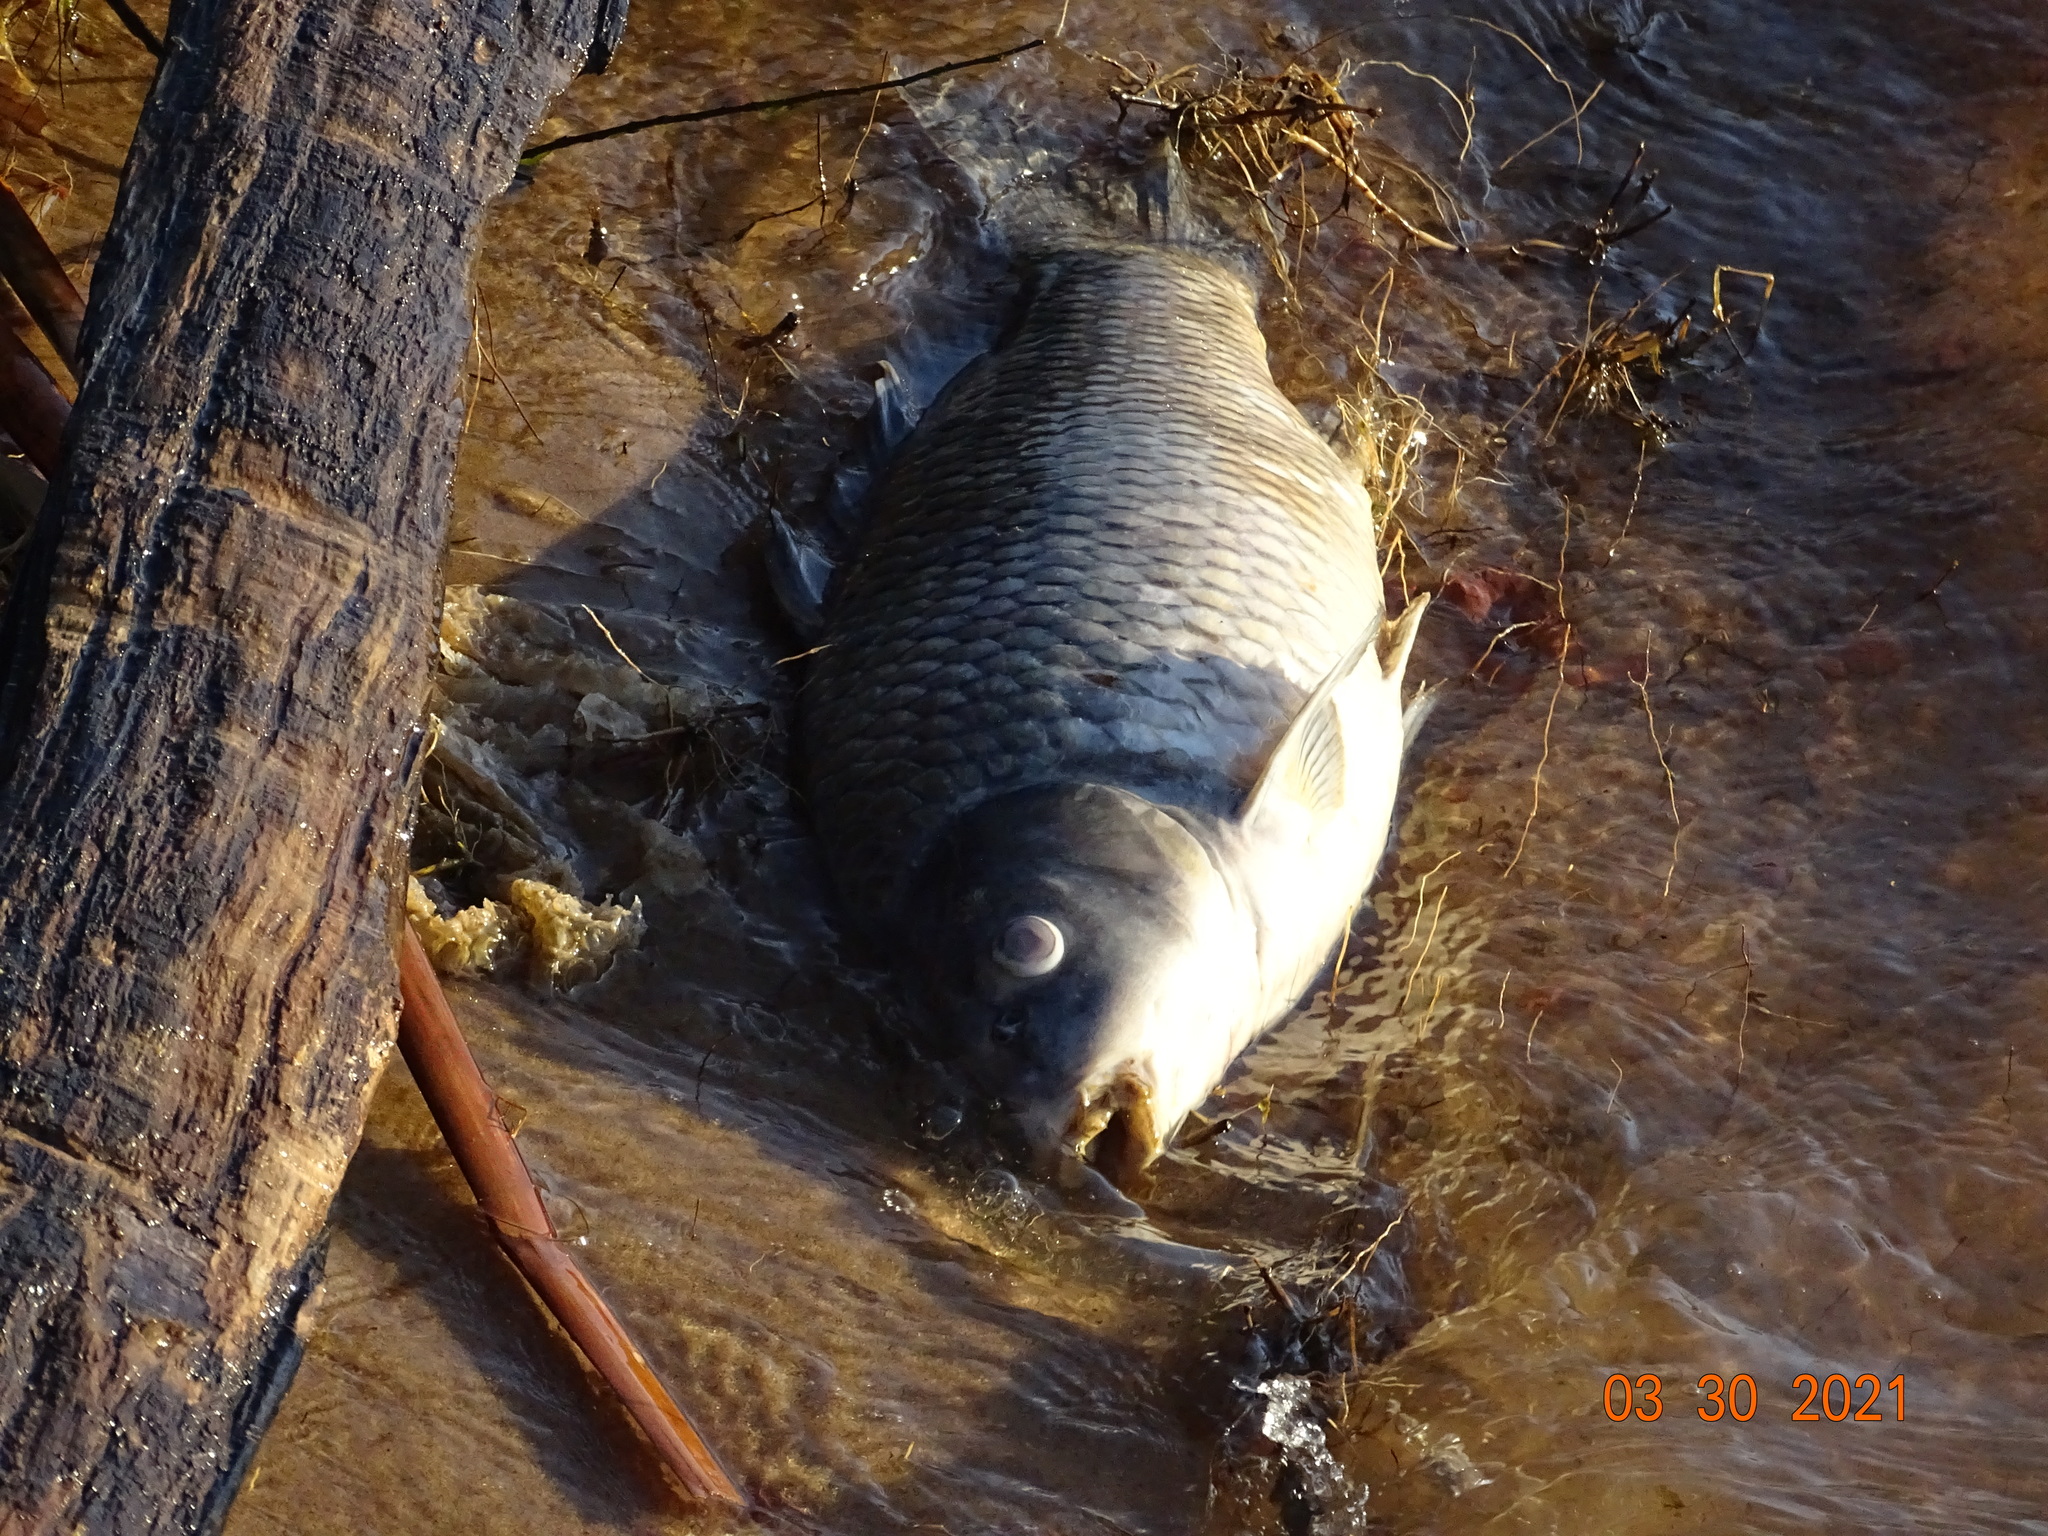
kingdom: Animalia
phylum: Chordata
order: Cypriniformes
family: Cyprinidae
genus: Cyprinus
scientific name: Cyprinus carpio
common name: Common carp
